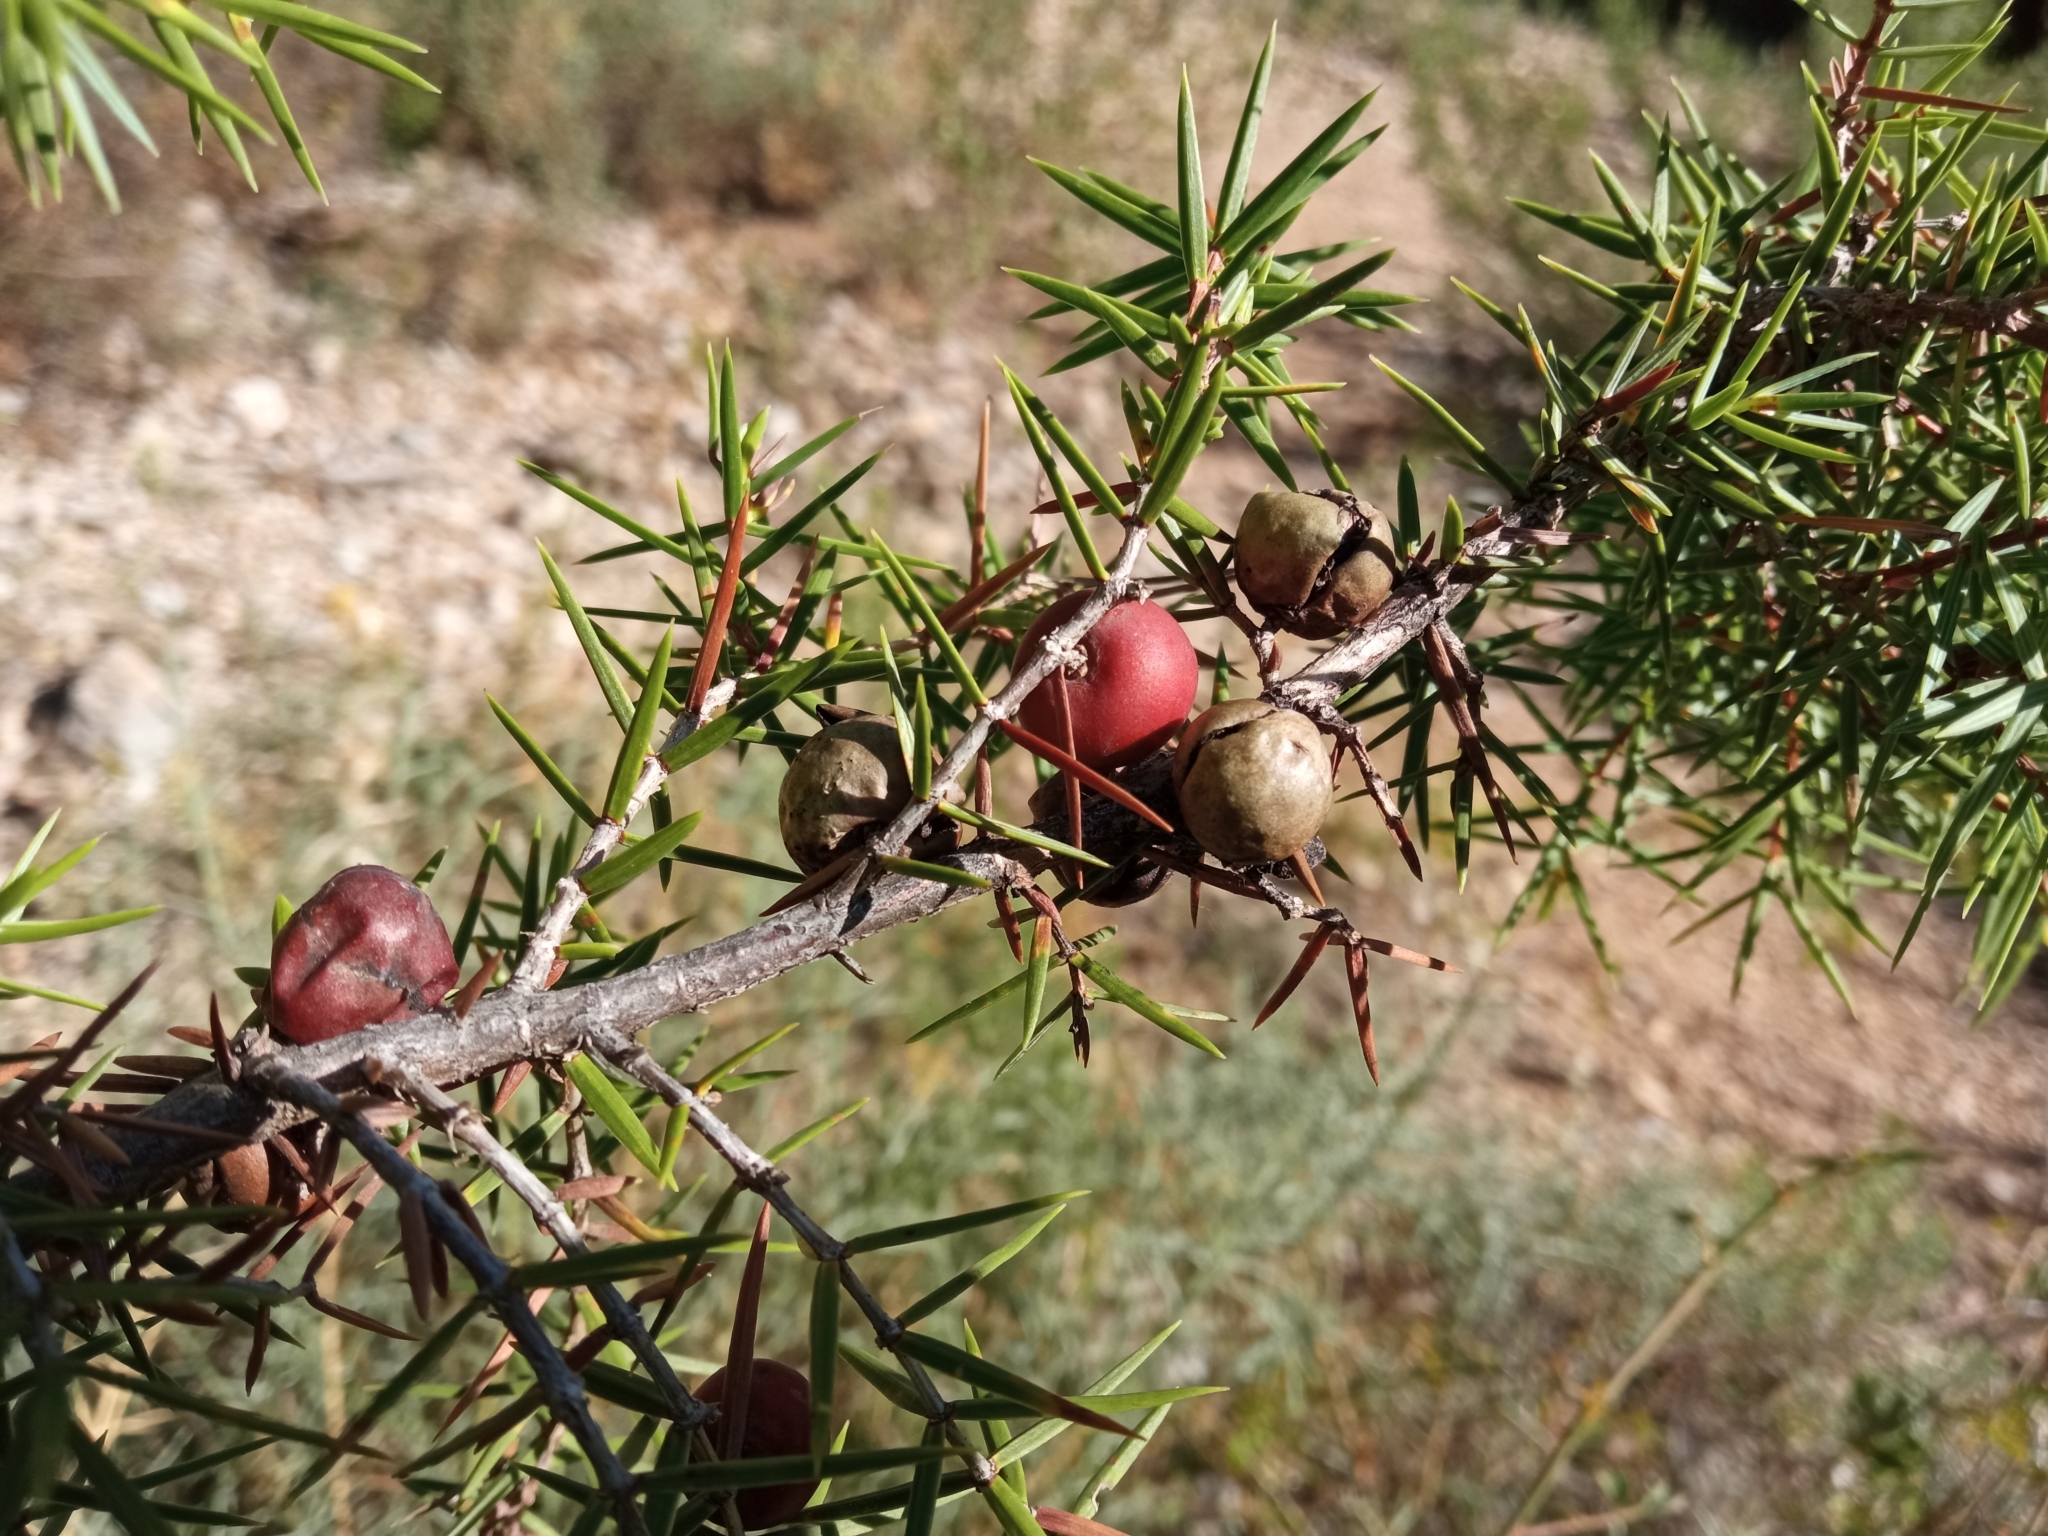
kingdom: Plantae
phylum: Tracheophyta
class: Pinopsida
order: Pinales
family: Cupressaceae
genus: Juniperus
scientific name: Juniperus oxycedrus
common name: Prickly juniper
